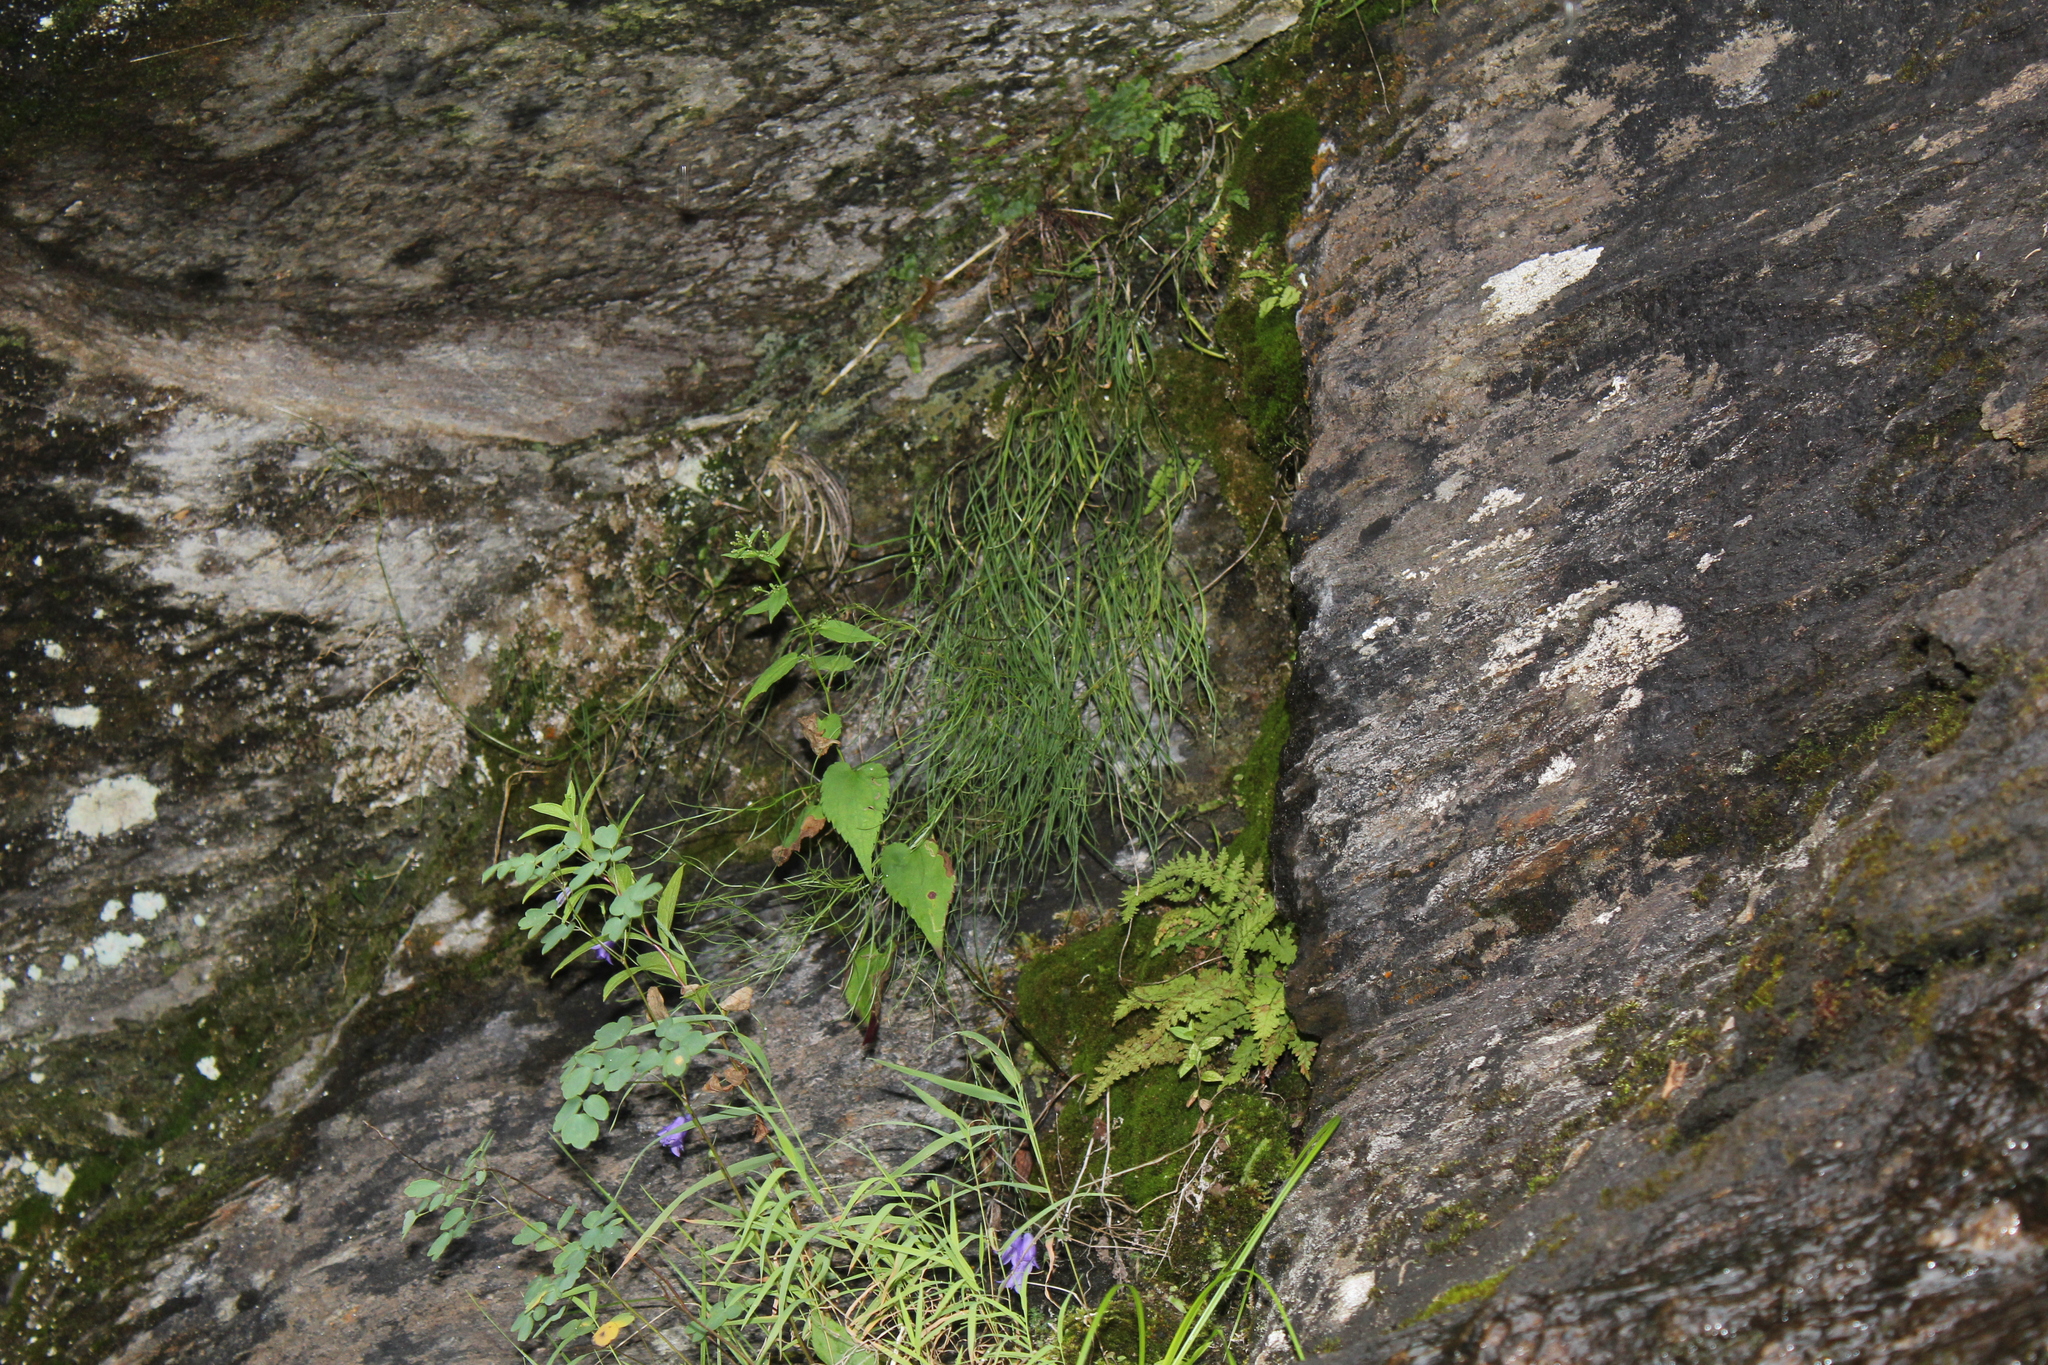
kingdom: Plantae
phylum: Tracheophyta
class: Magnoliopsida
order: Asterales
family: Campanulaceae
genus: Campanula
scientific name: Campanula intercedens
